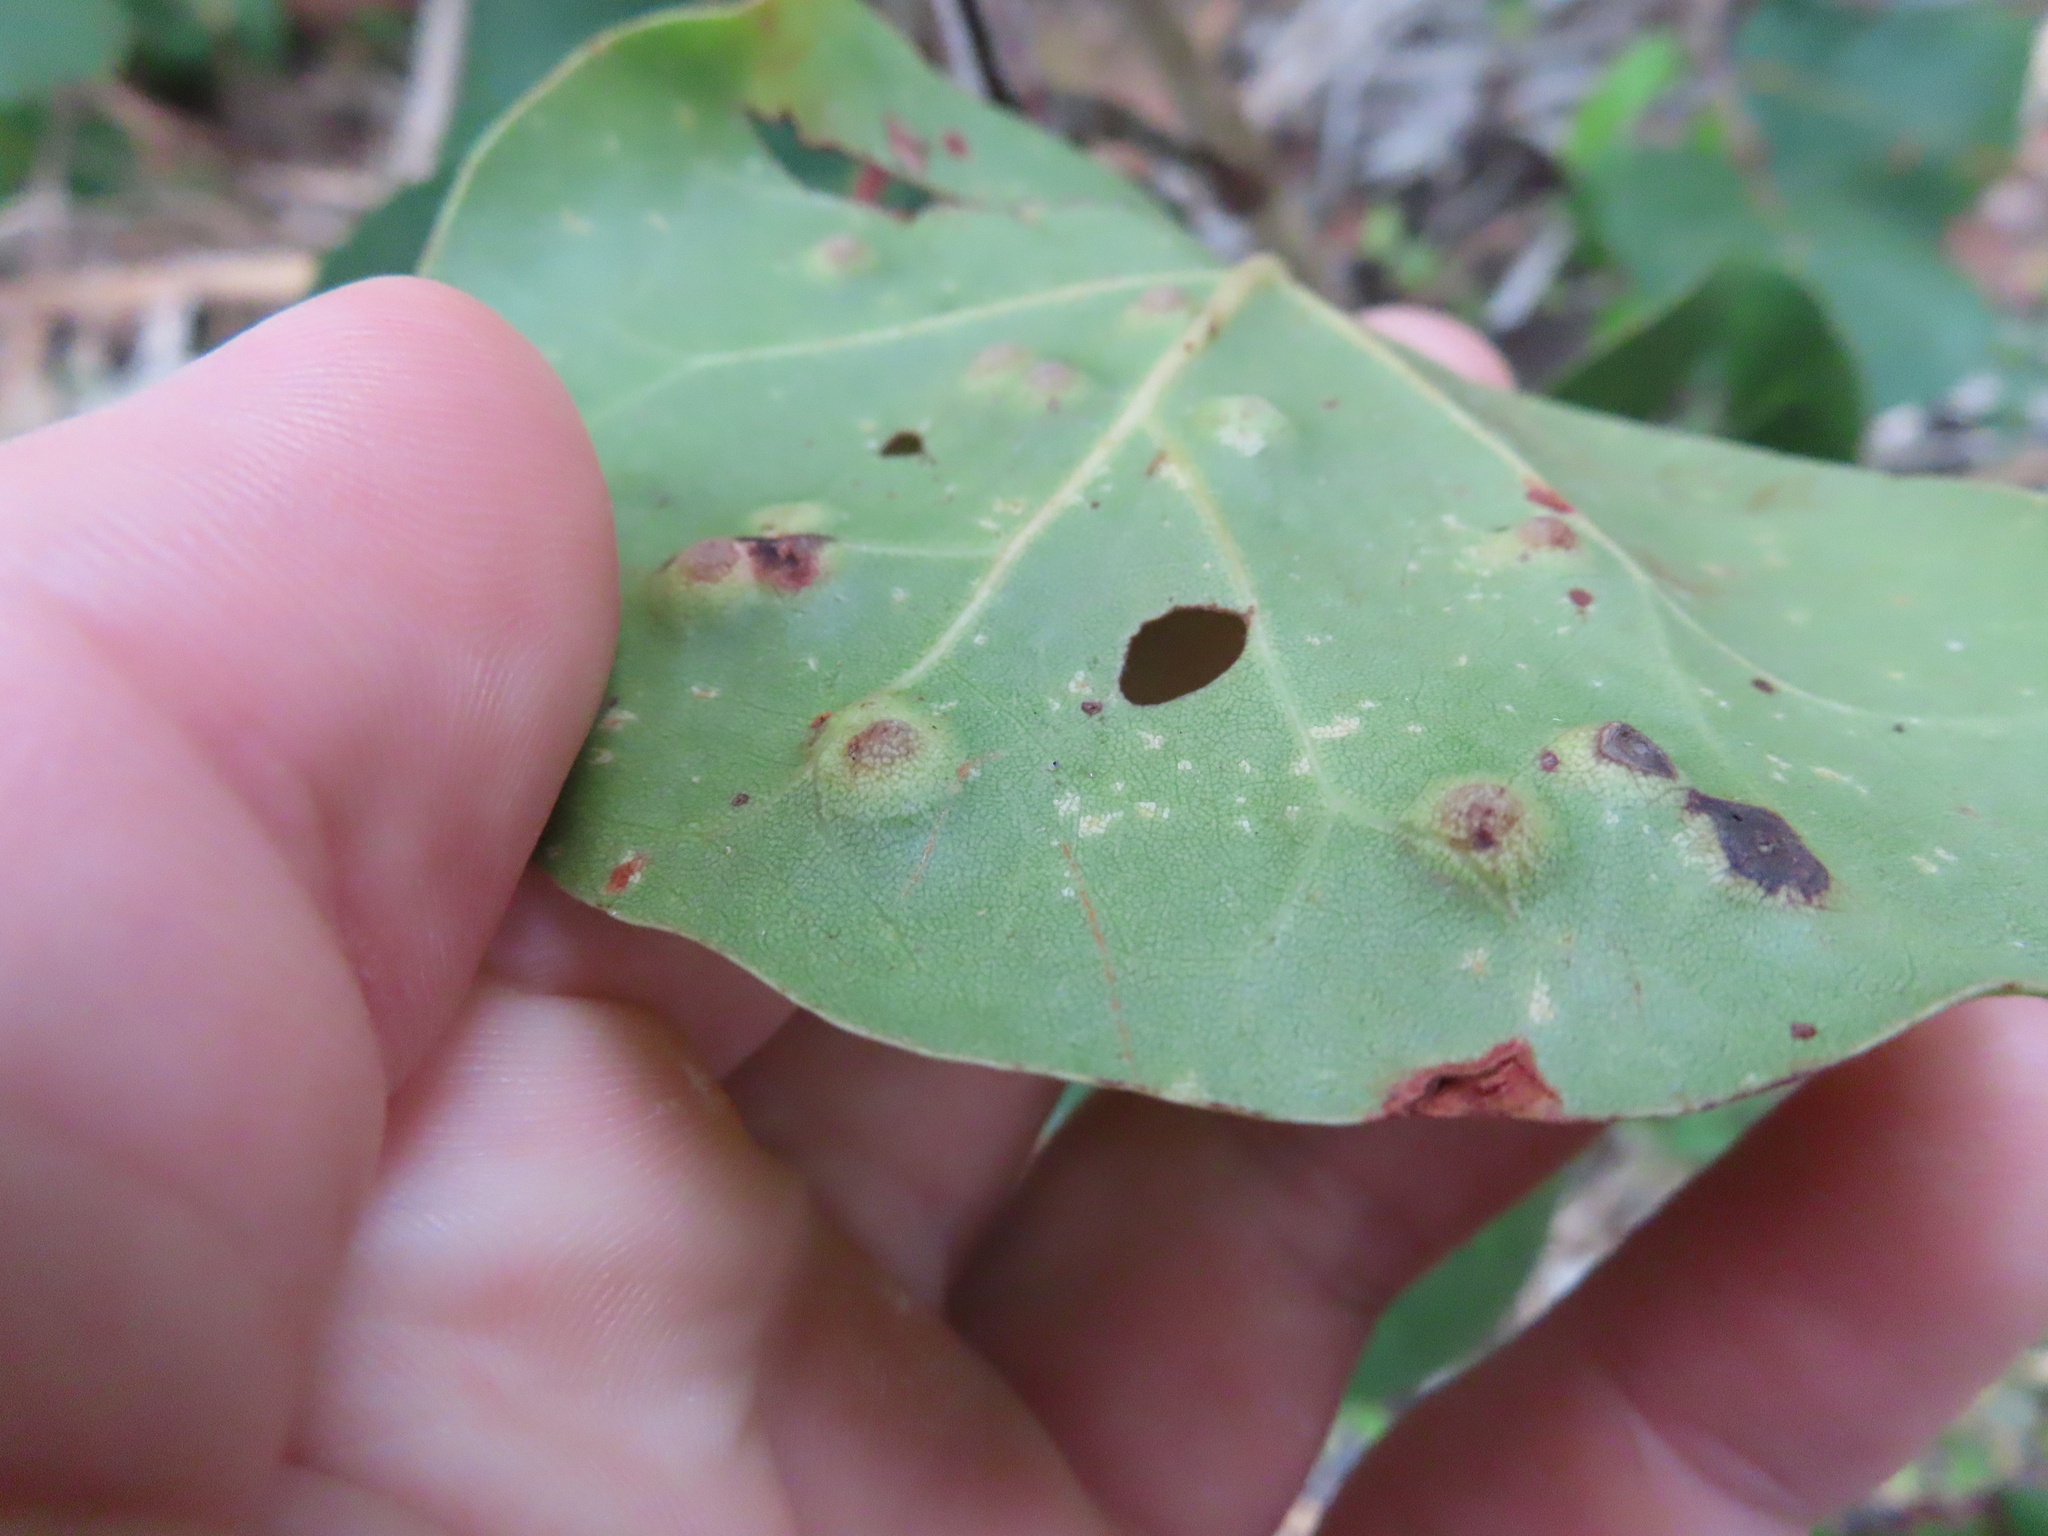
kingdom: Animalia
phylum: Arthropoda
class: Insecta
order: Diptera
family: Cecidomyiidae
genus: Ctenodactylomyia
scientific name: Ctenodactylomyia watsoni
